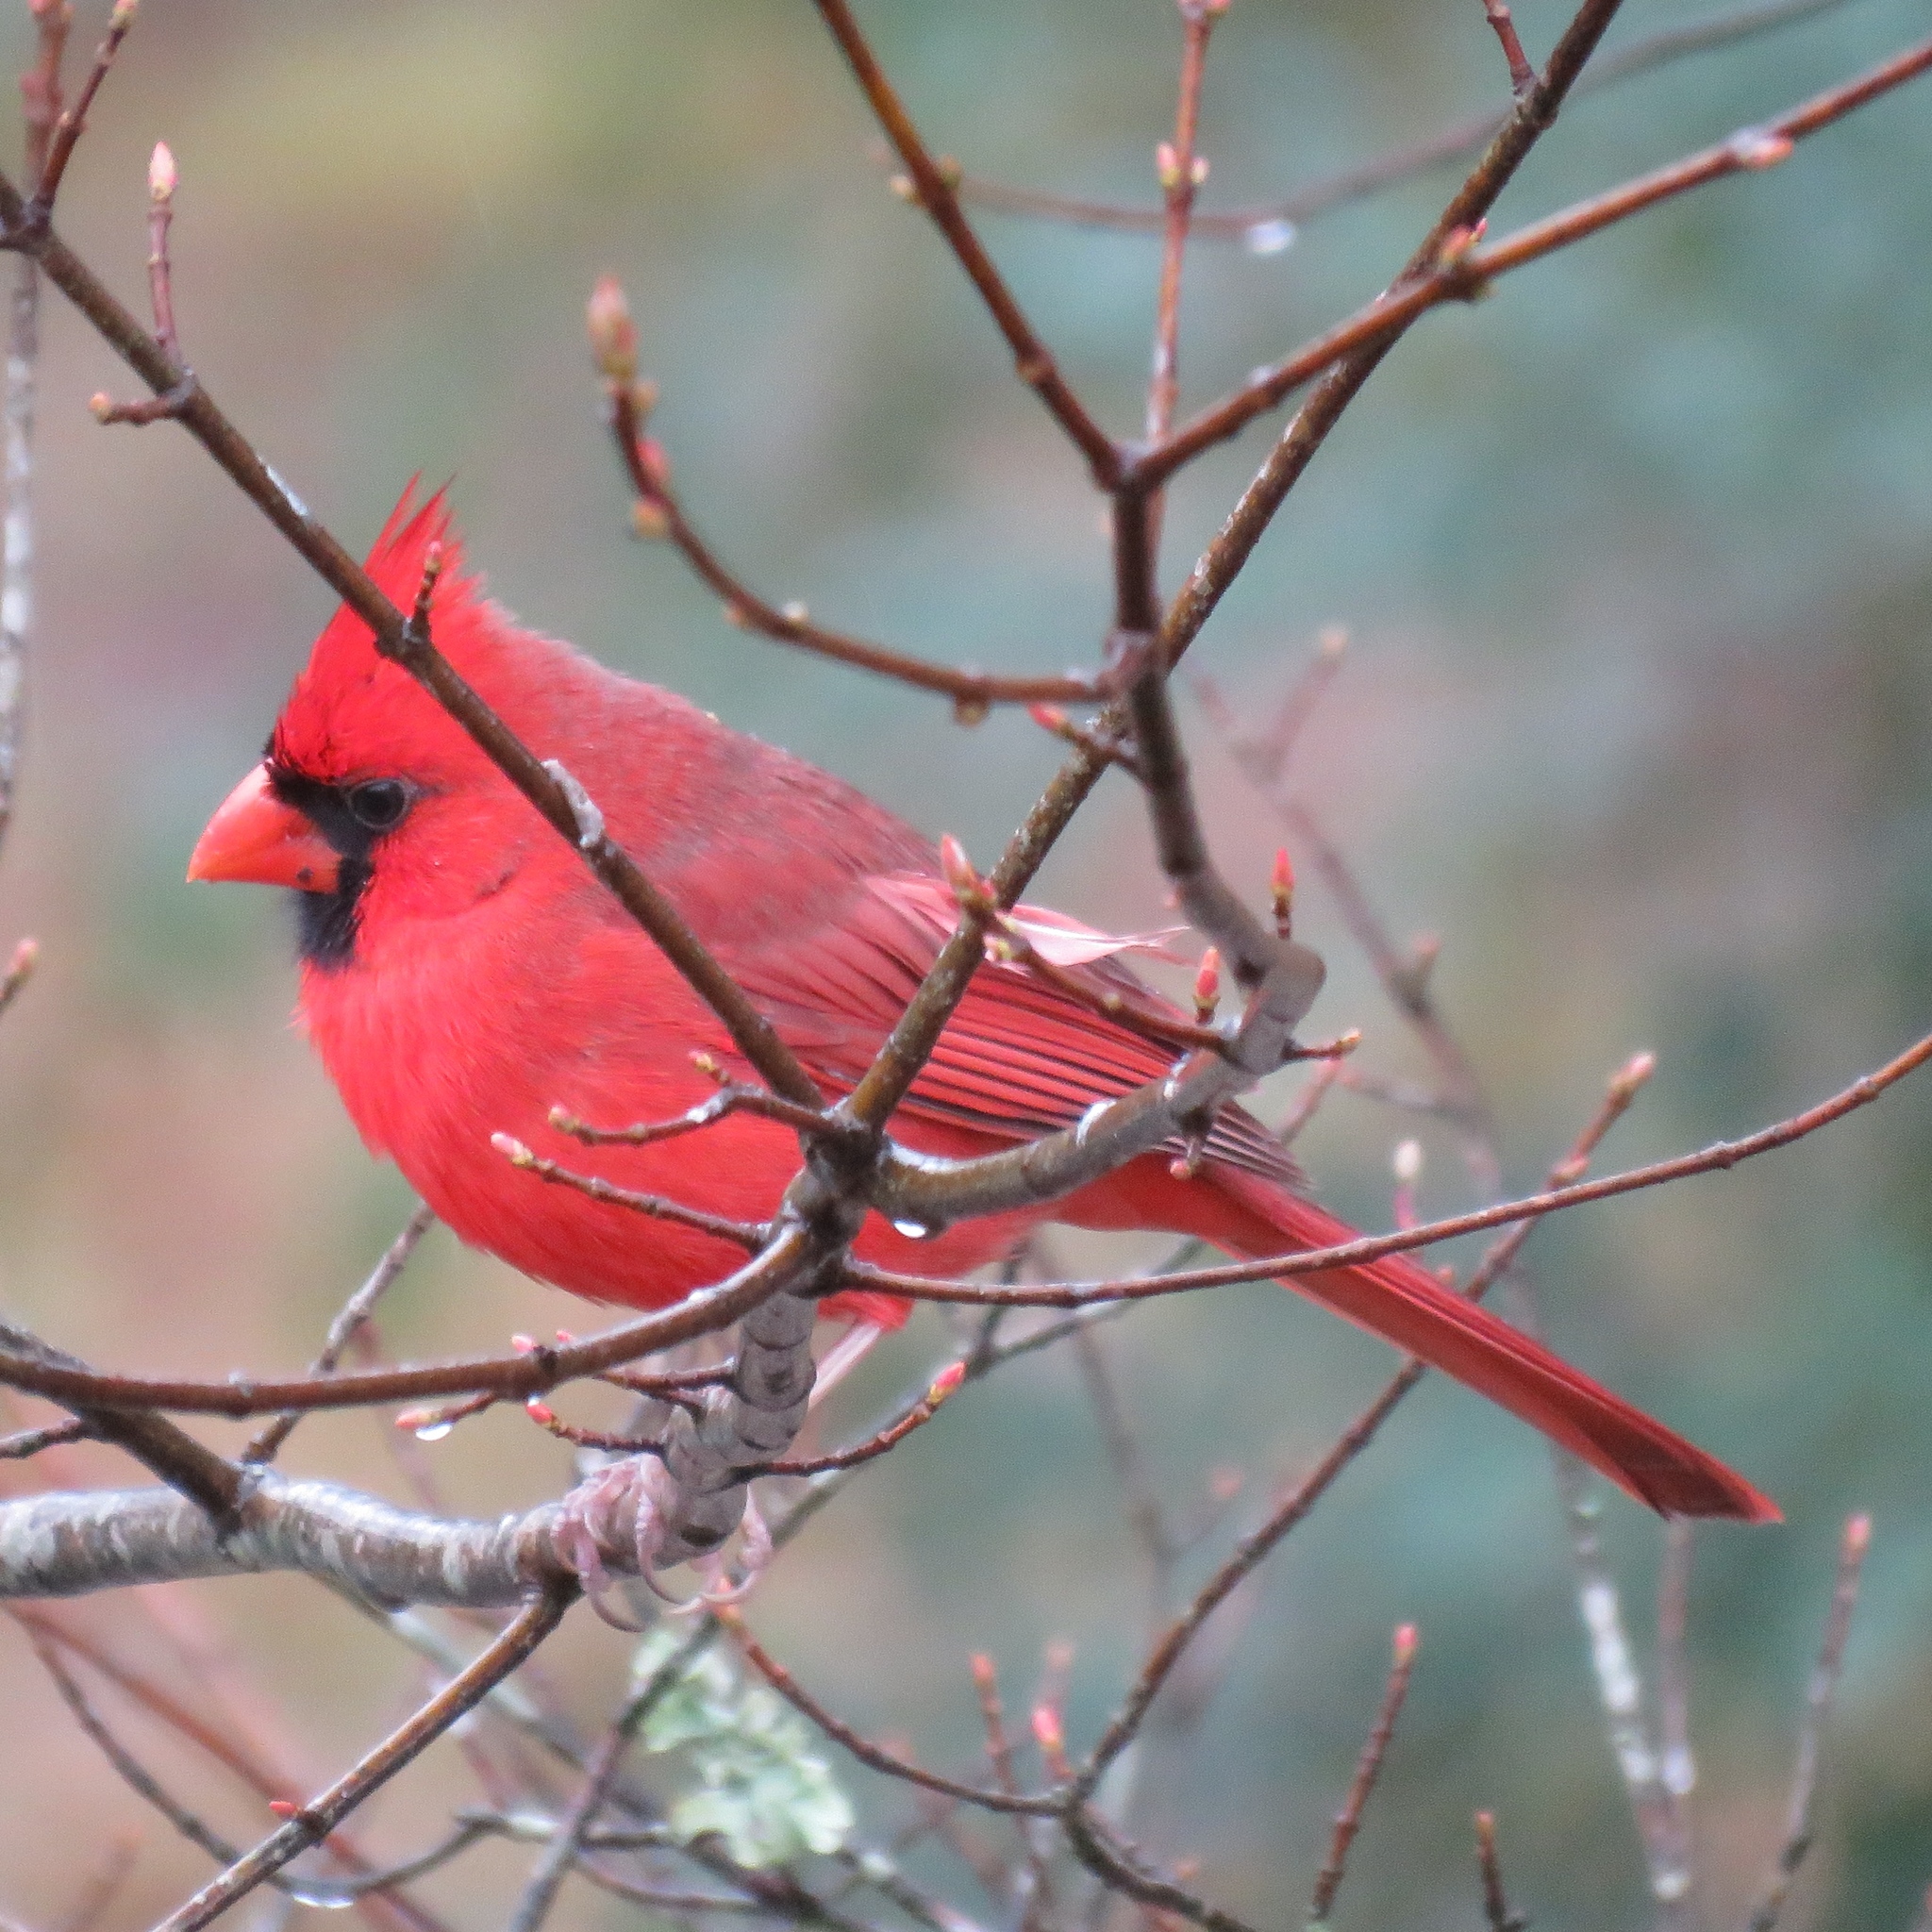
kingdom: Animalia
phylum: Chordata
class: Aves
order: Passeriformes
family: Cardinalidae
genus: Cardinalis
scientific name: Cardinalis cardinalis
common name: Northern cardinal
